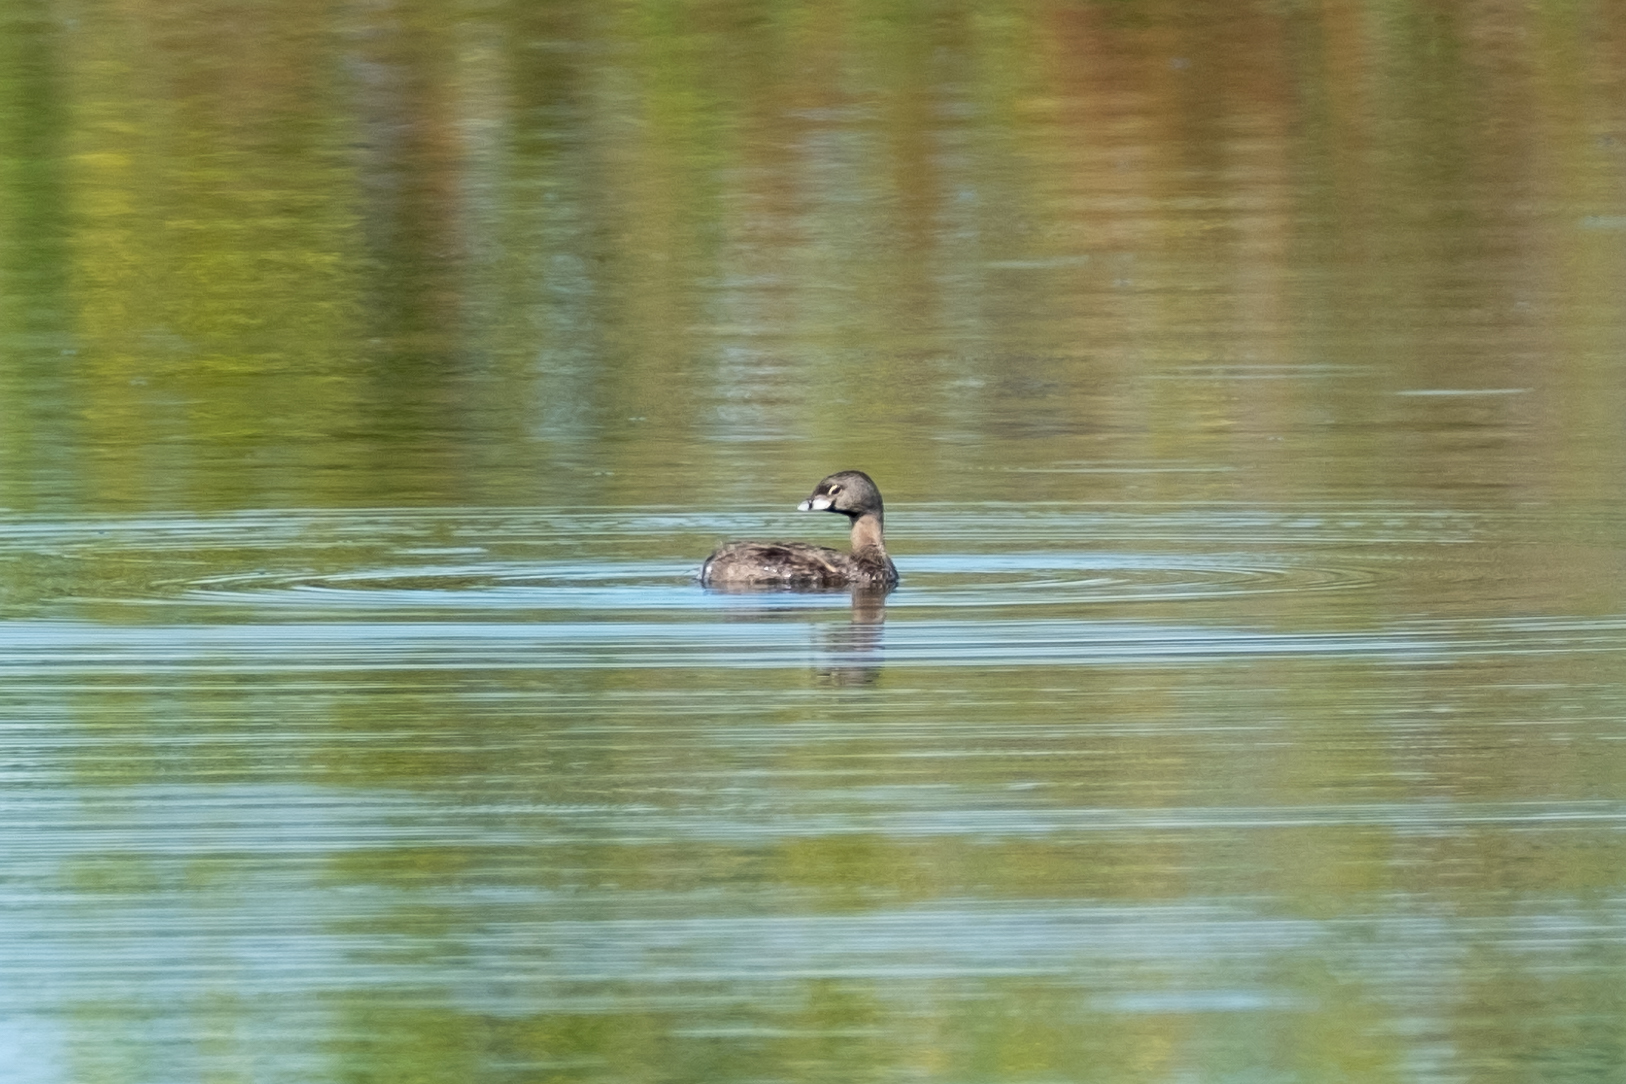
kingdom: Animalia
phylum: Chordata
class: Aves
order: Podicipediformes
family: Podicipedidae
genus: Podilymbus
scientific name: Podilymbus podiceps
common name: Pied-billed grebe
